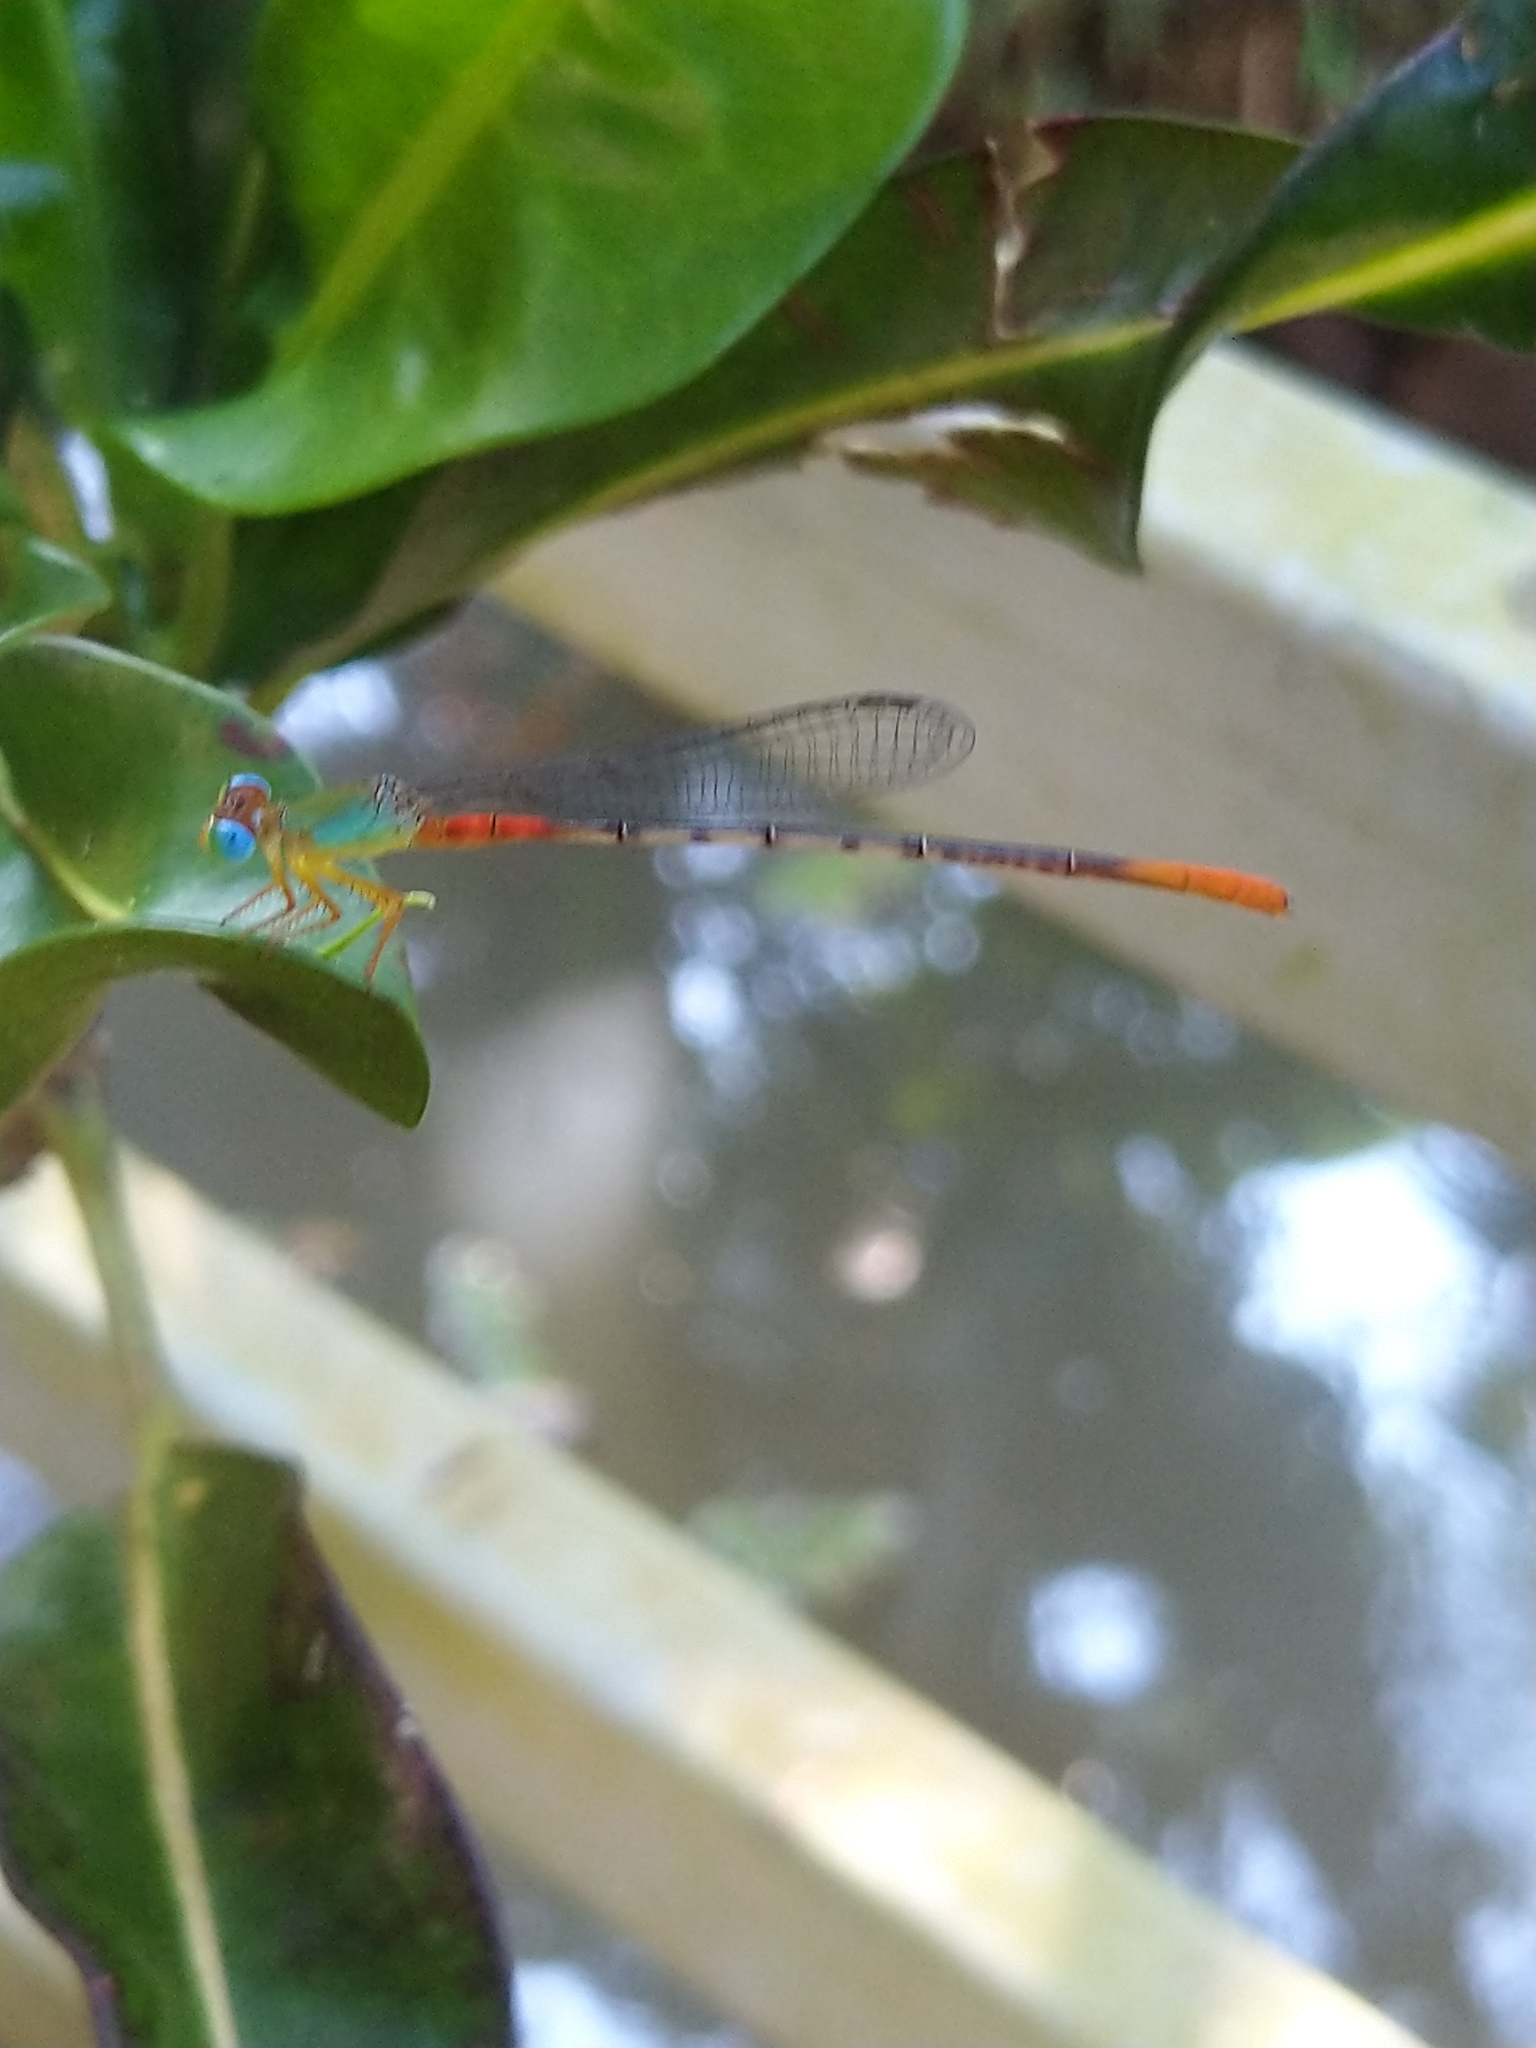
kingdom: Animalia
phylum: Arthropoda
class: Insecta
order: Odonata
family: Coenagrionidae
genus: Ceriagrion
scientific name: Ceriagrion cerinorubellum
